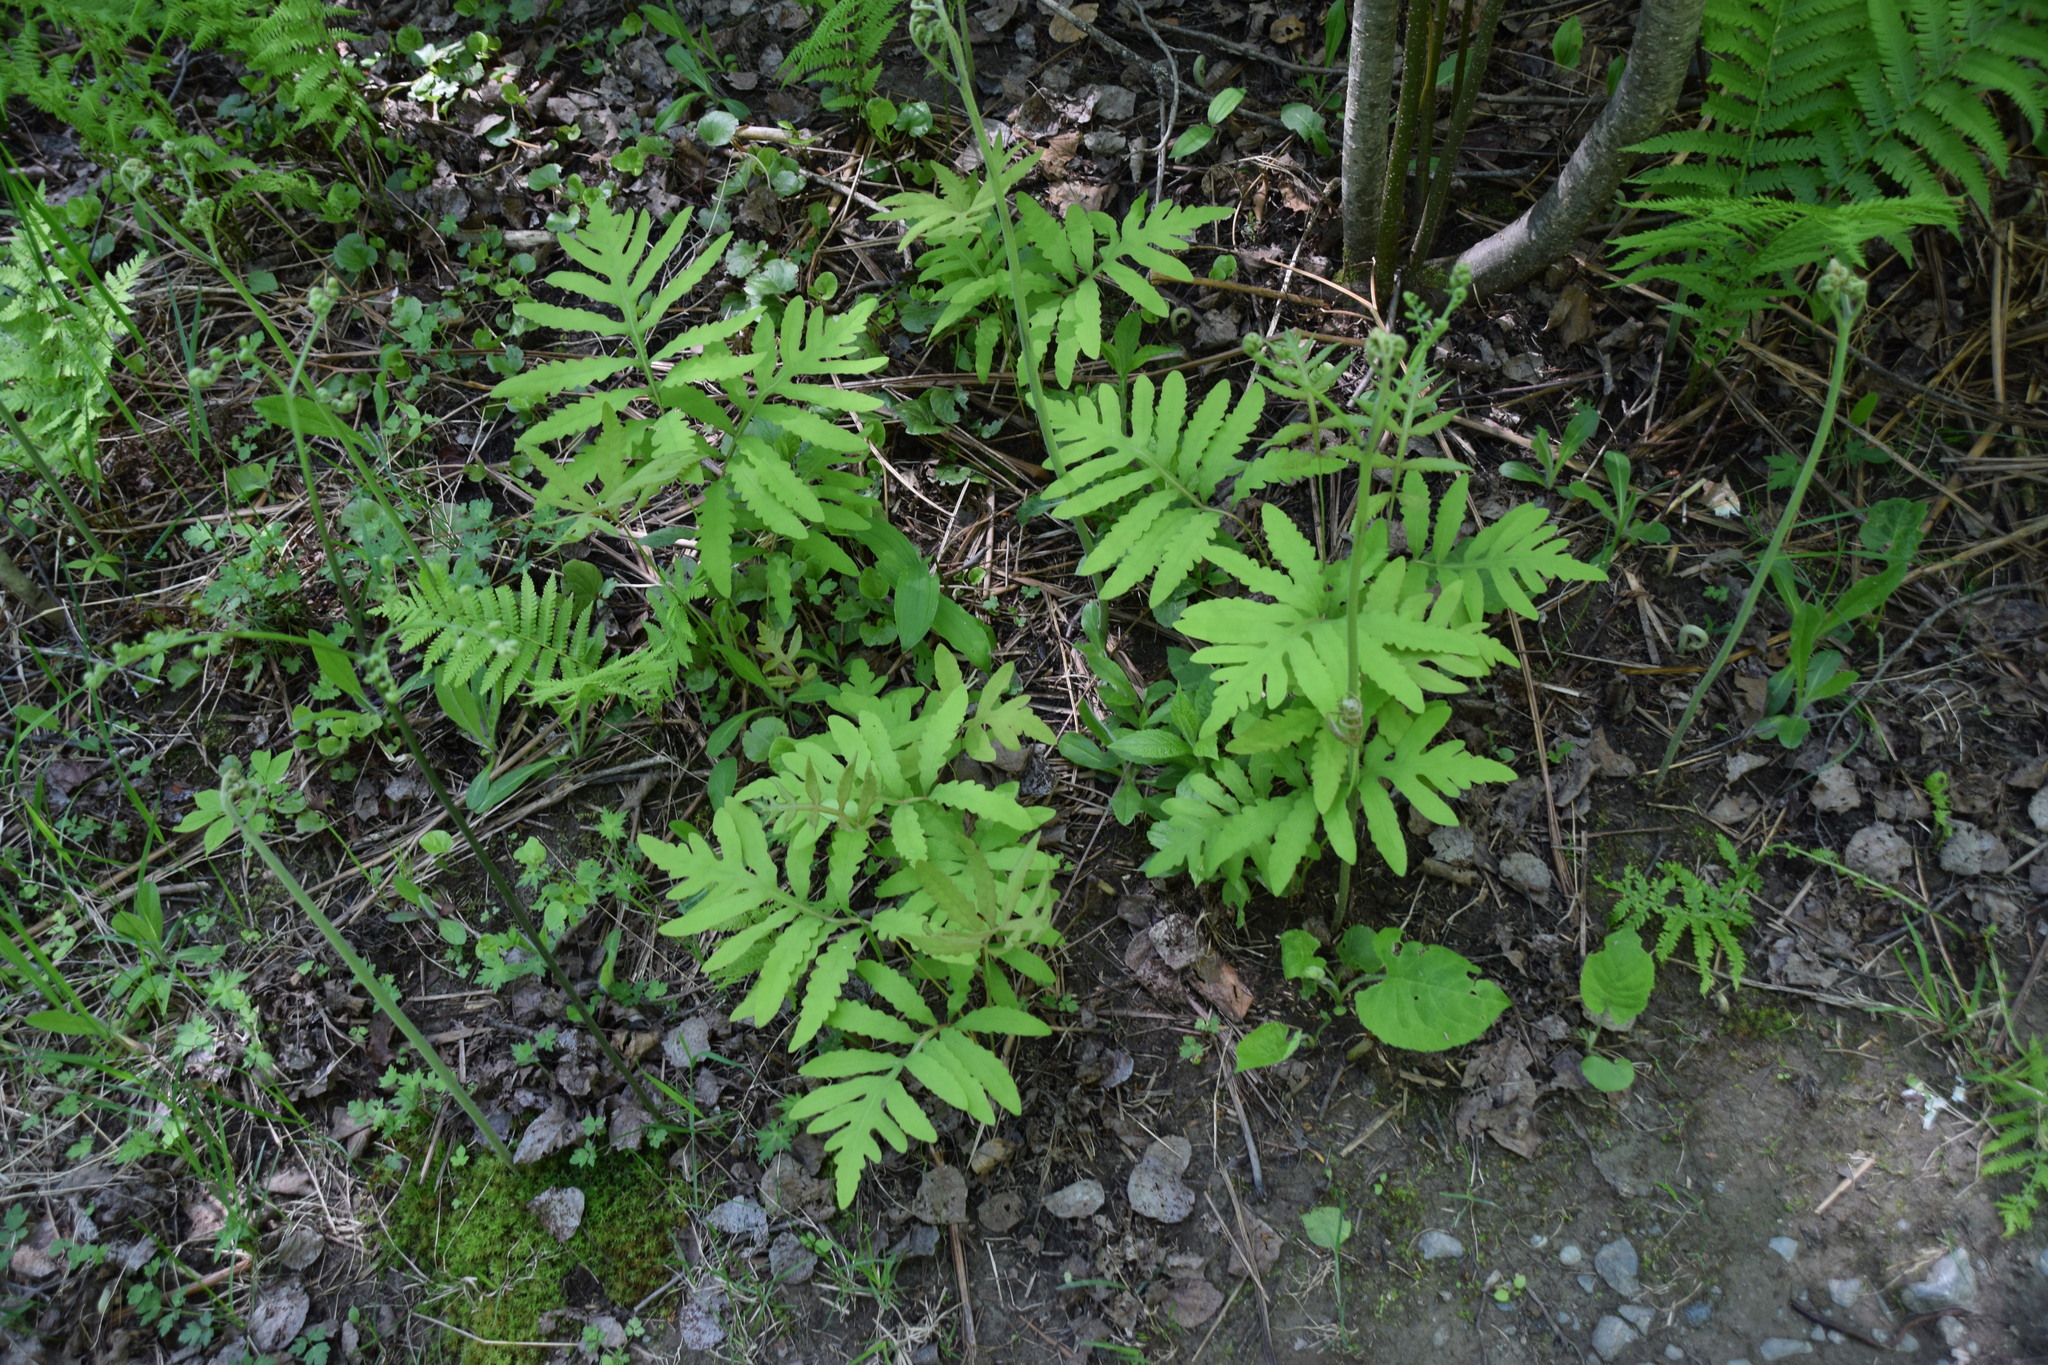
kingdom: Plantae
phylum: Tracheophyta
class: Polypodiopsida
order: Polypodiales
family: Onocleaceae
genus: Onoclea
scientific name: Onoclea sensibilis
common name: Sensitive fern
